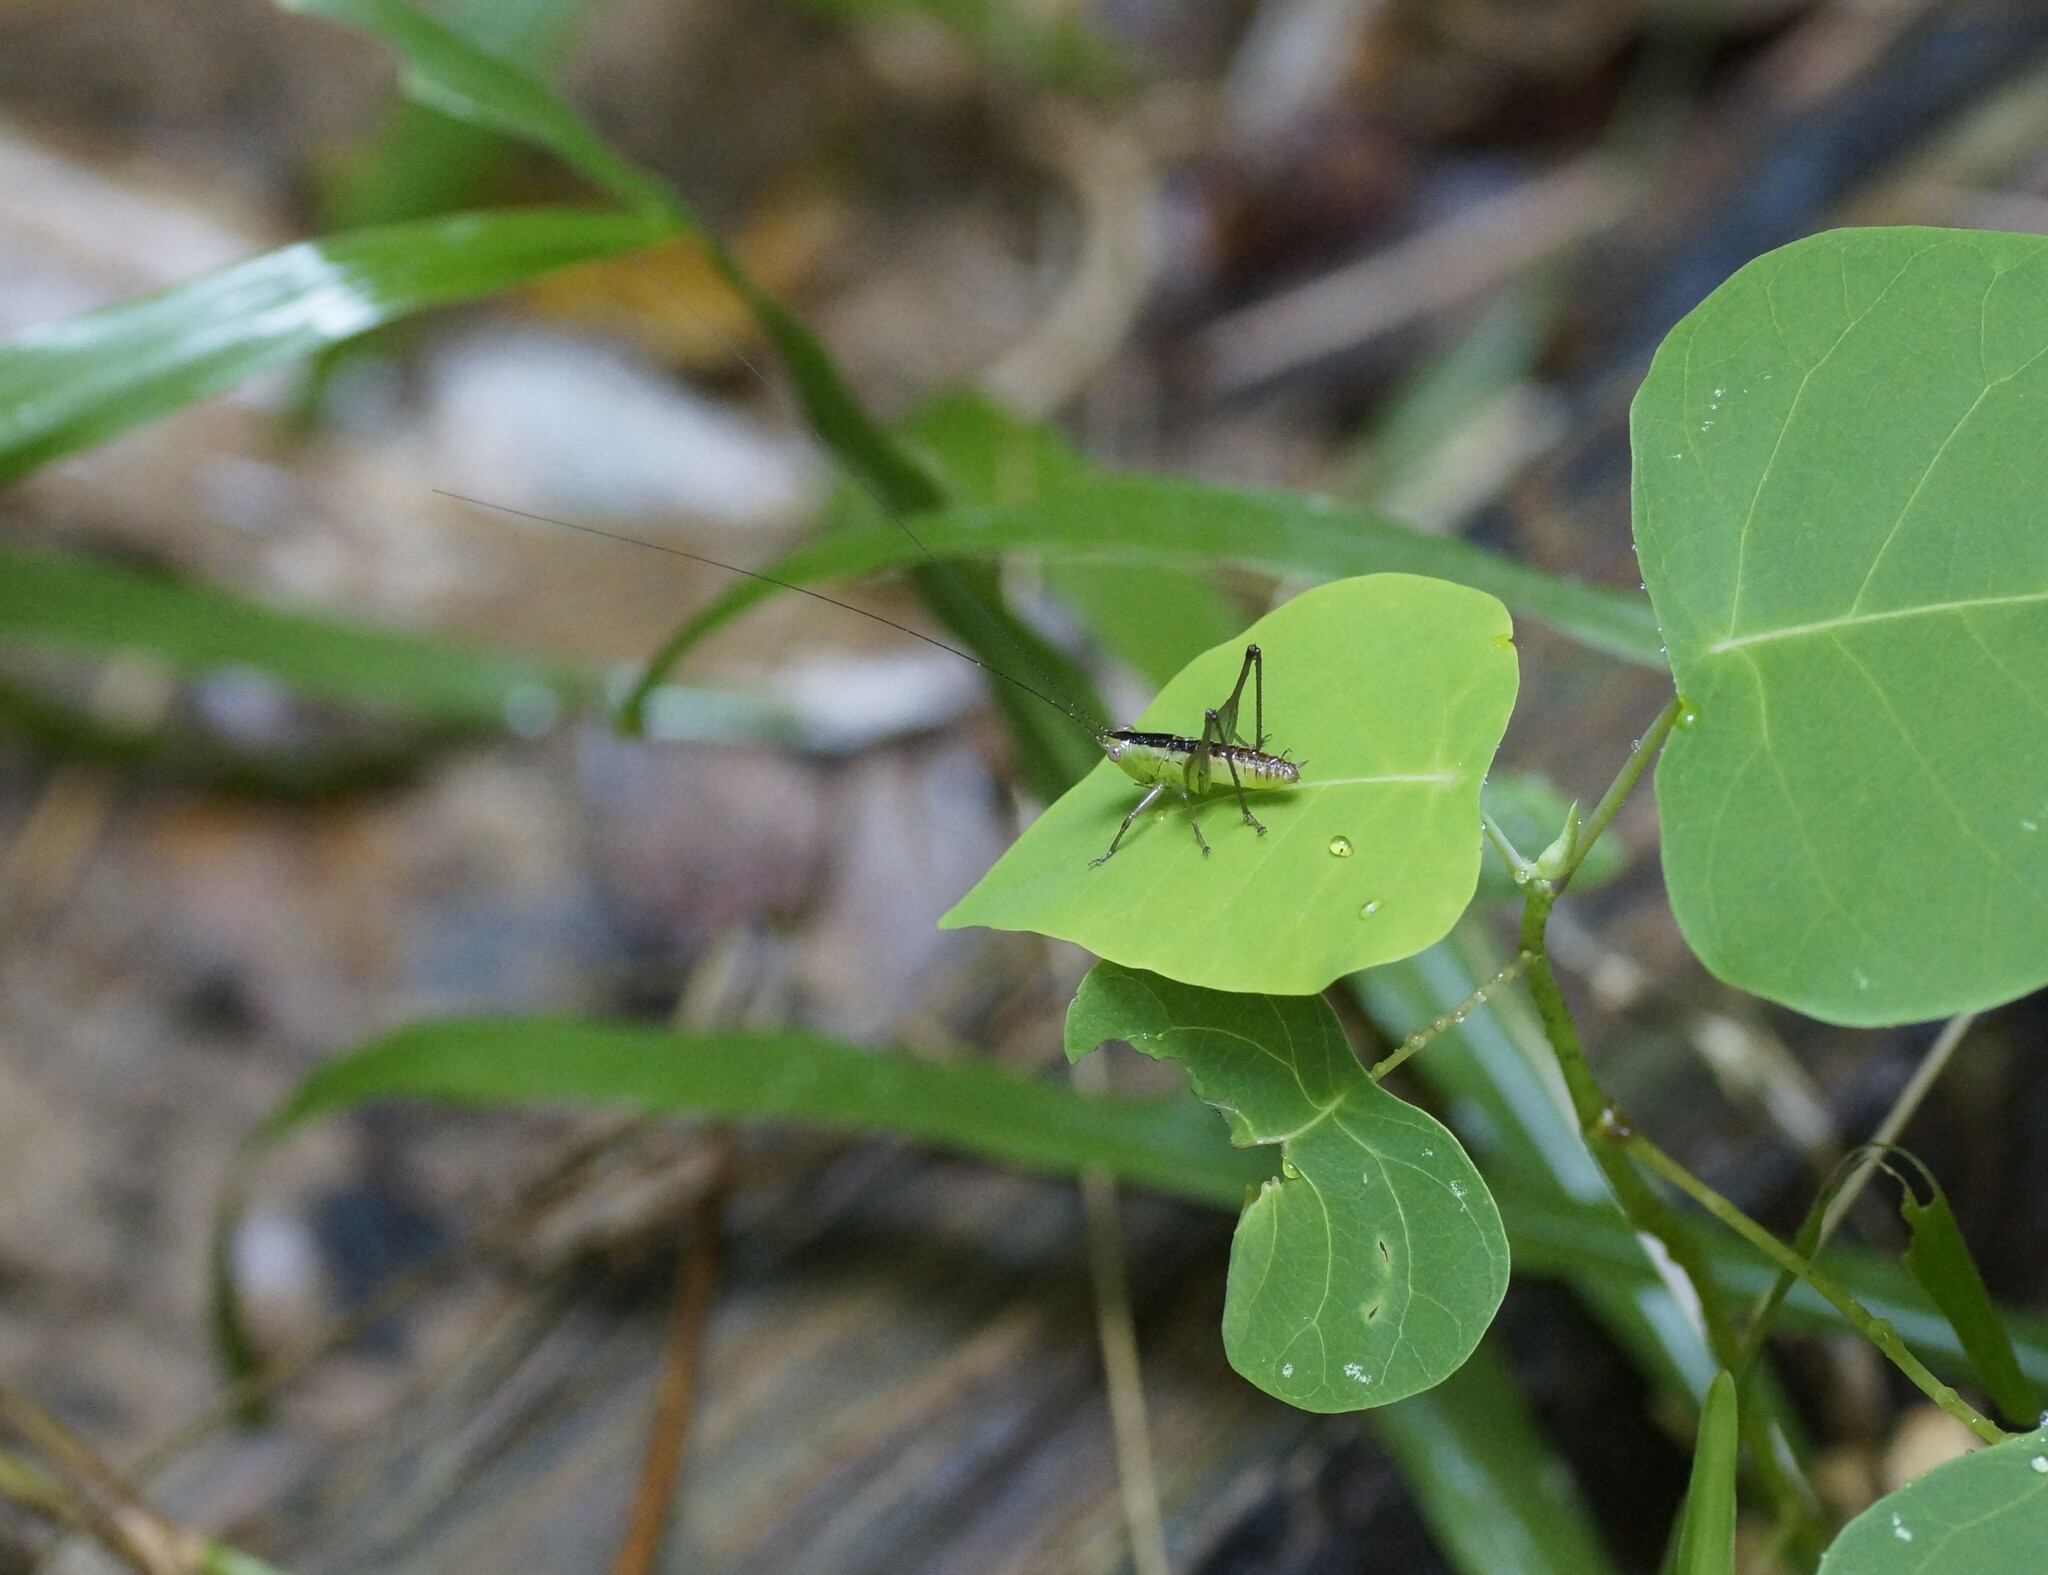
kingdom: Animalia
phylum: Arthropoda
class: Insecta
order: Orthoptera
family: Tettigoniidae
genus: Conocephalus
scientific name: Conocephalus semivittatus
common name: Blackish meadow katydid
